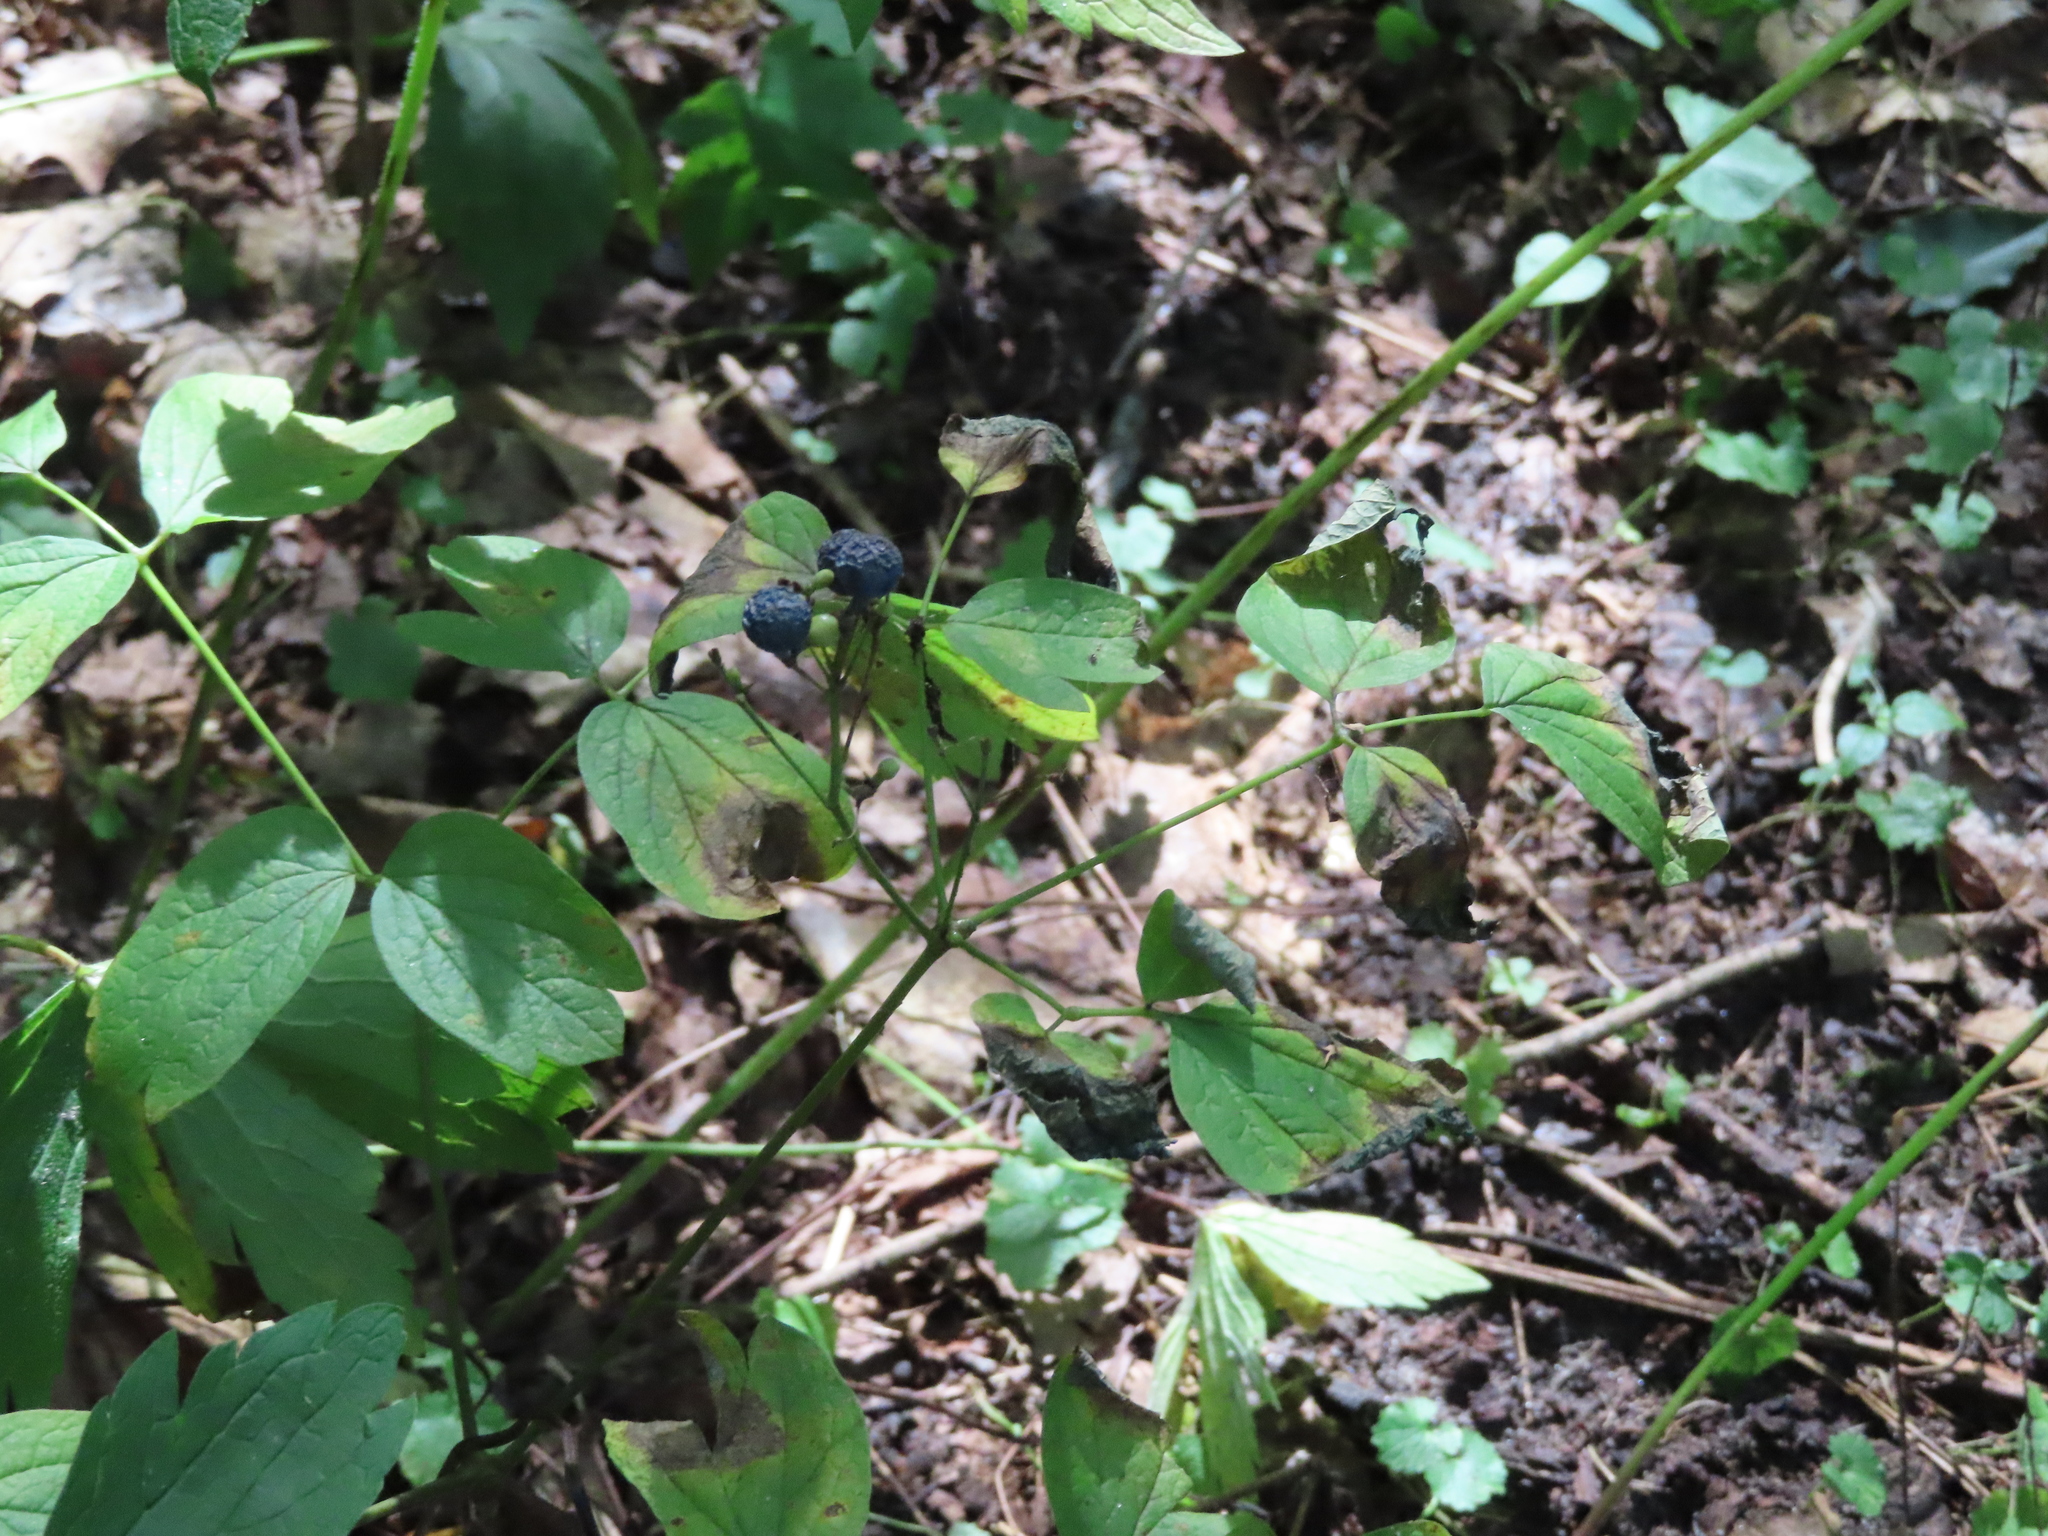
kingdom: Plantae
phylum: Tracheophyta
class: Magnoliopsida
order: Ranunculales
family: Berberidaceae
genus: Caulophyllum
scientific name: Caulophyllum thalictroides
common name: Blue cohosh
